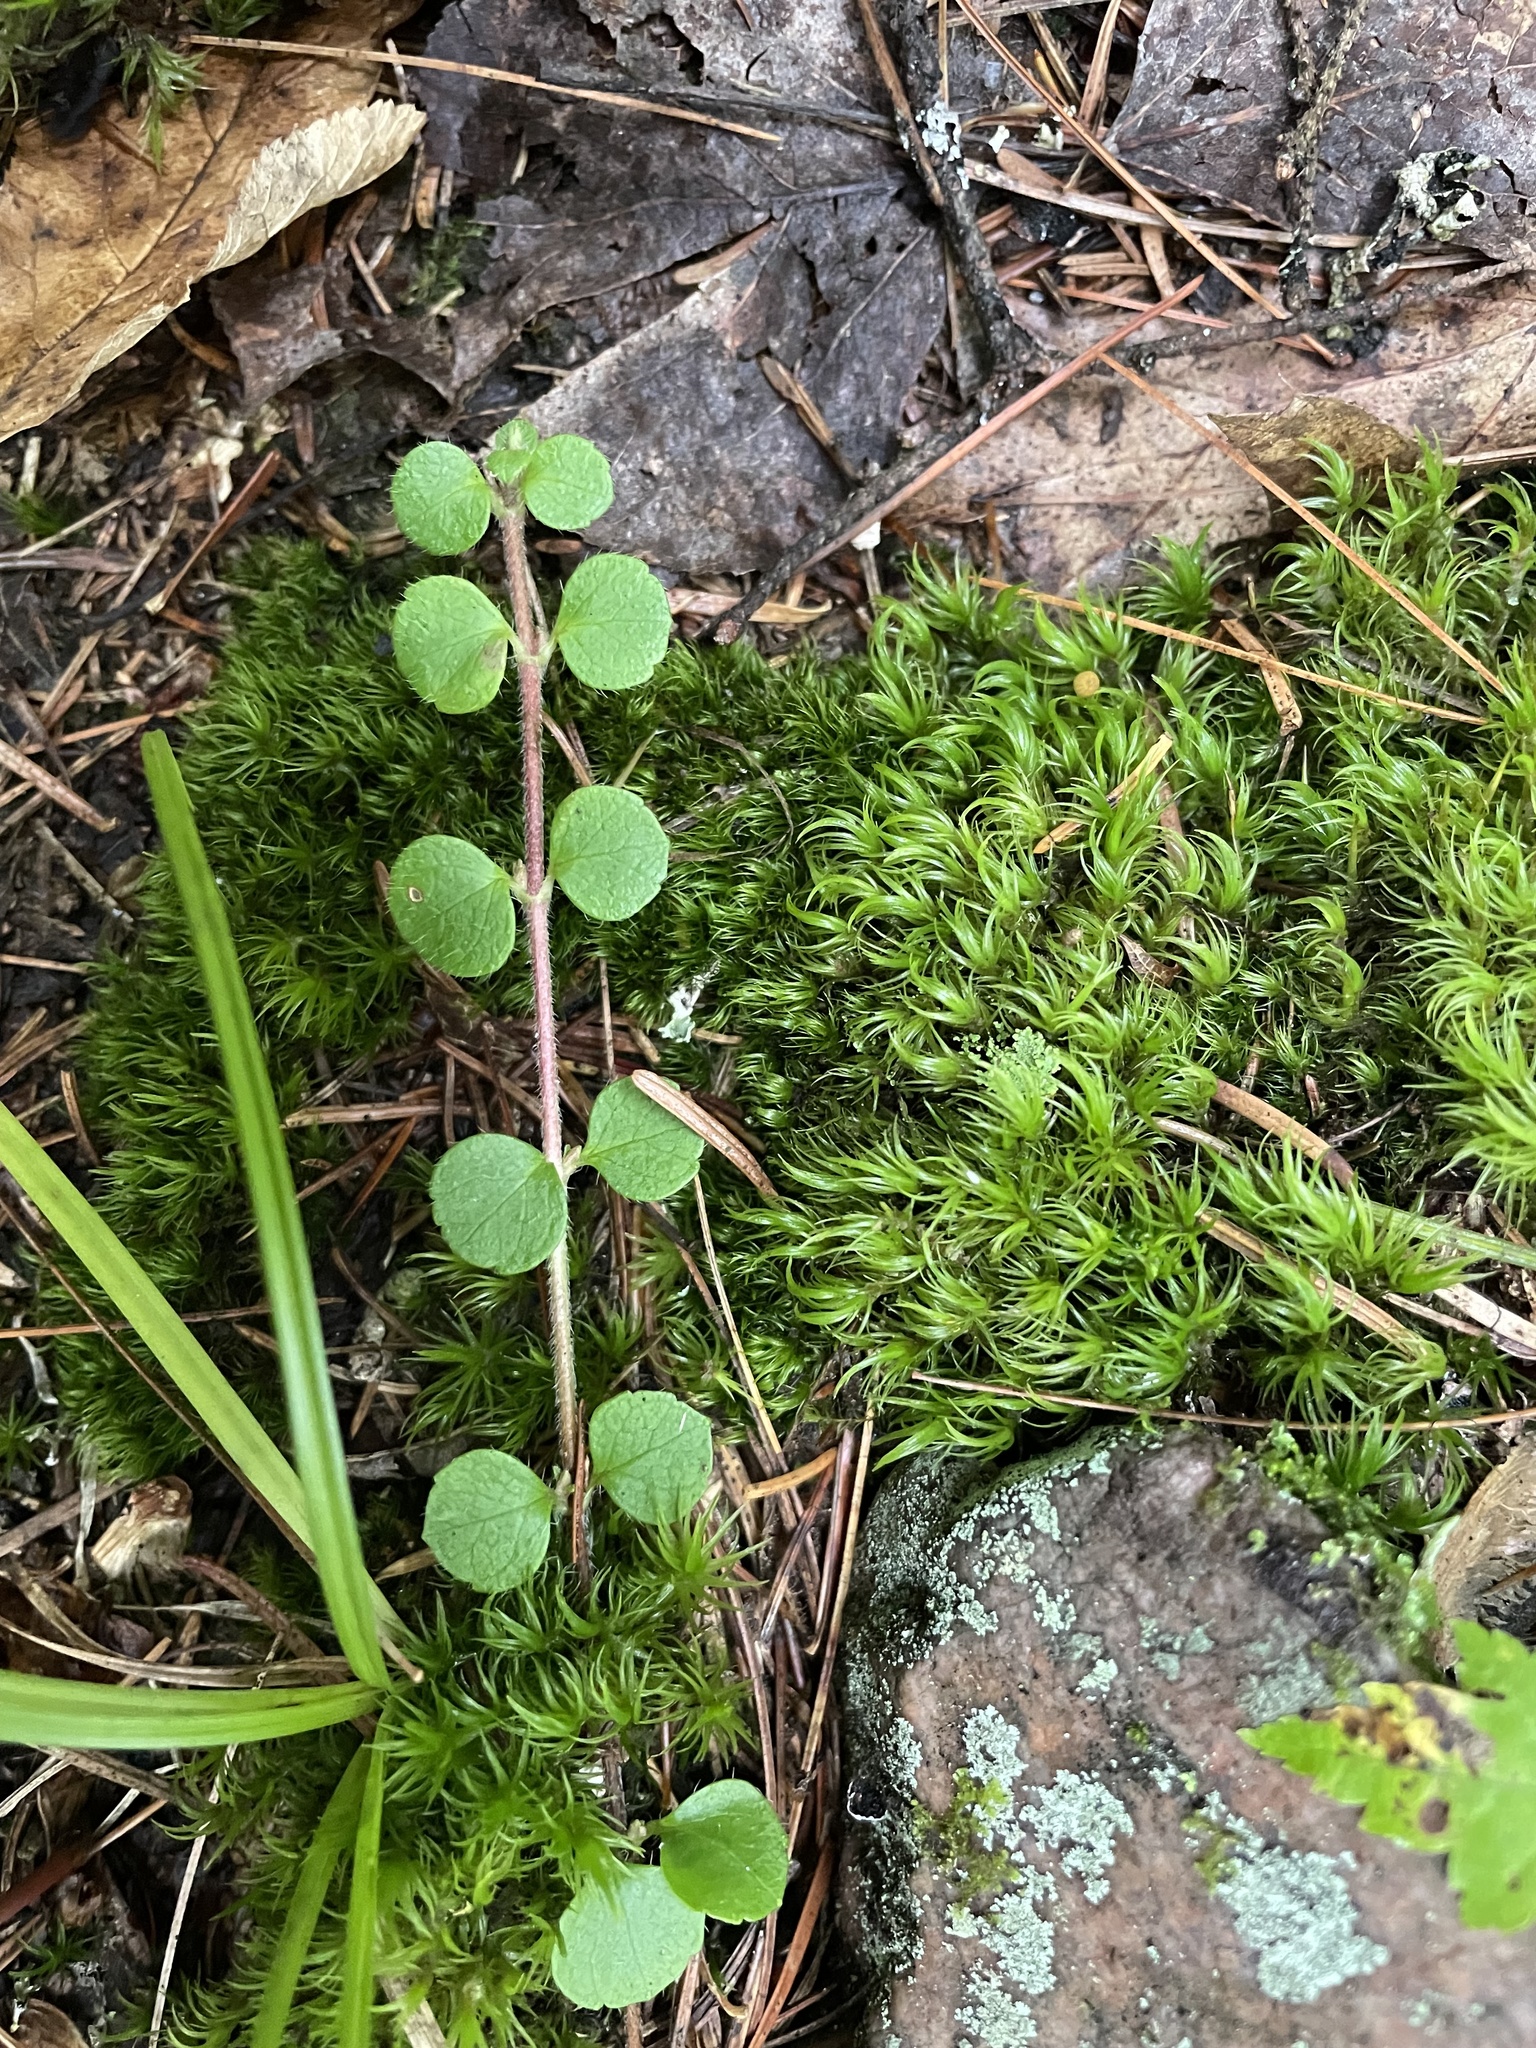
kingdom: Plantae
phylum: Tracheophyta
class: Magnoliopsida
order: Dipsacales
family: Caprifoliaceae
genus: Linnaea
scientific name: Linnaea borealis
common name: Twinflower
